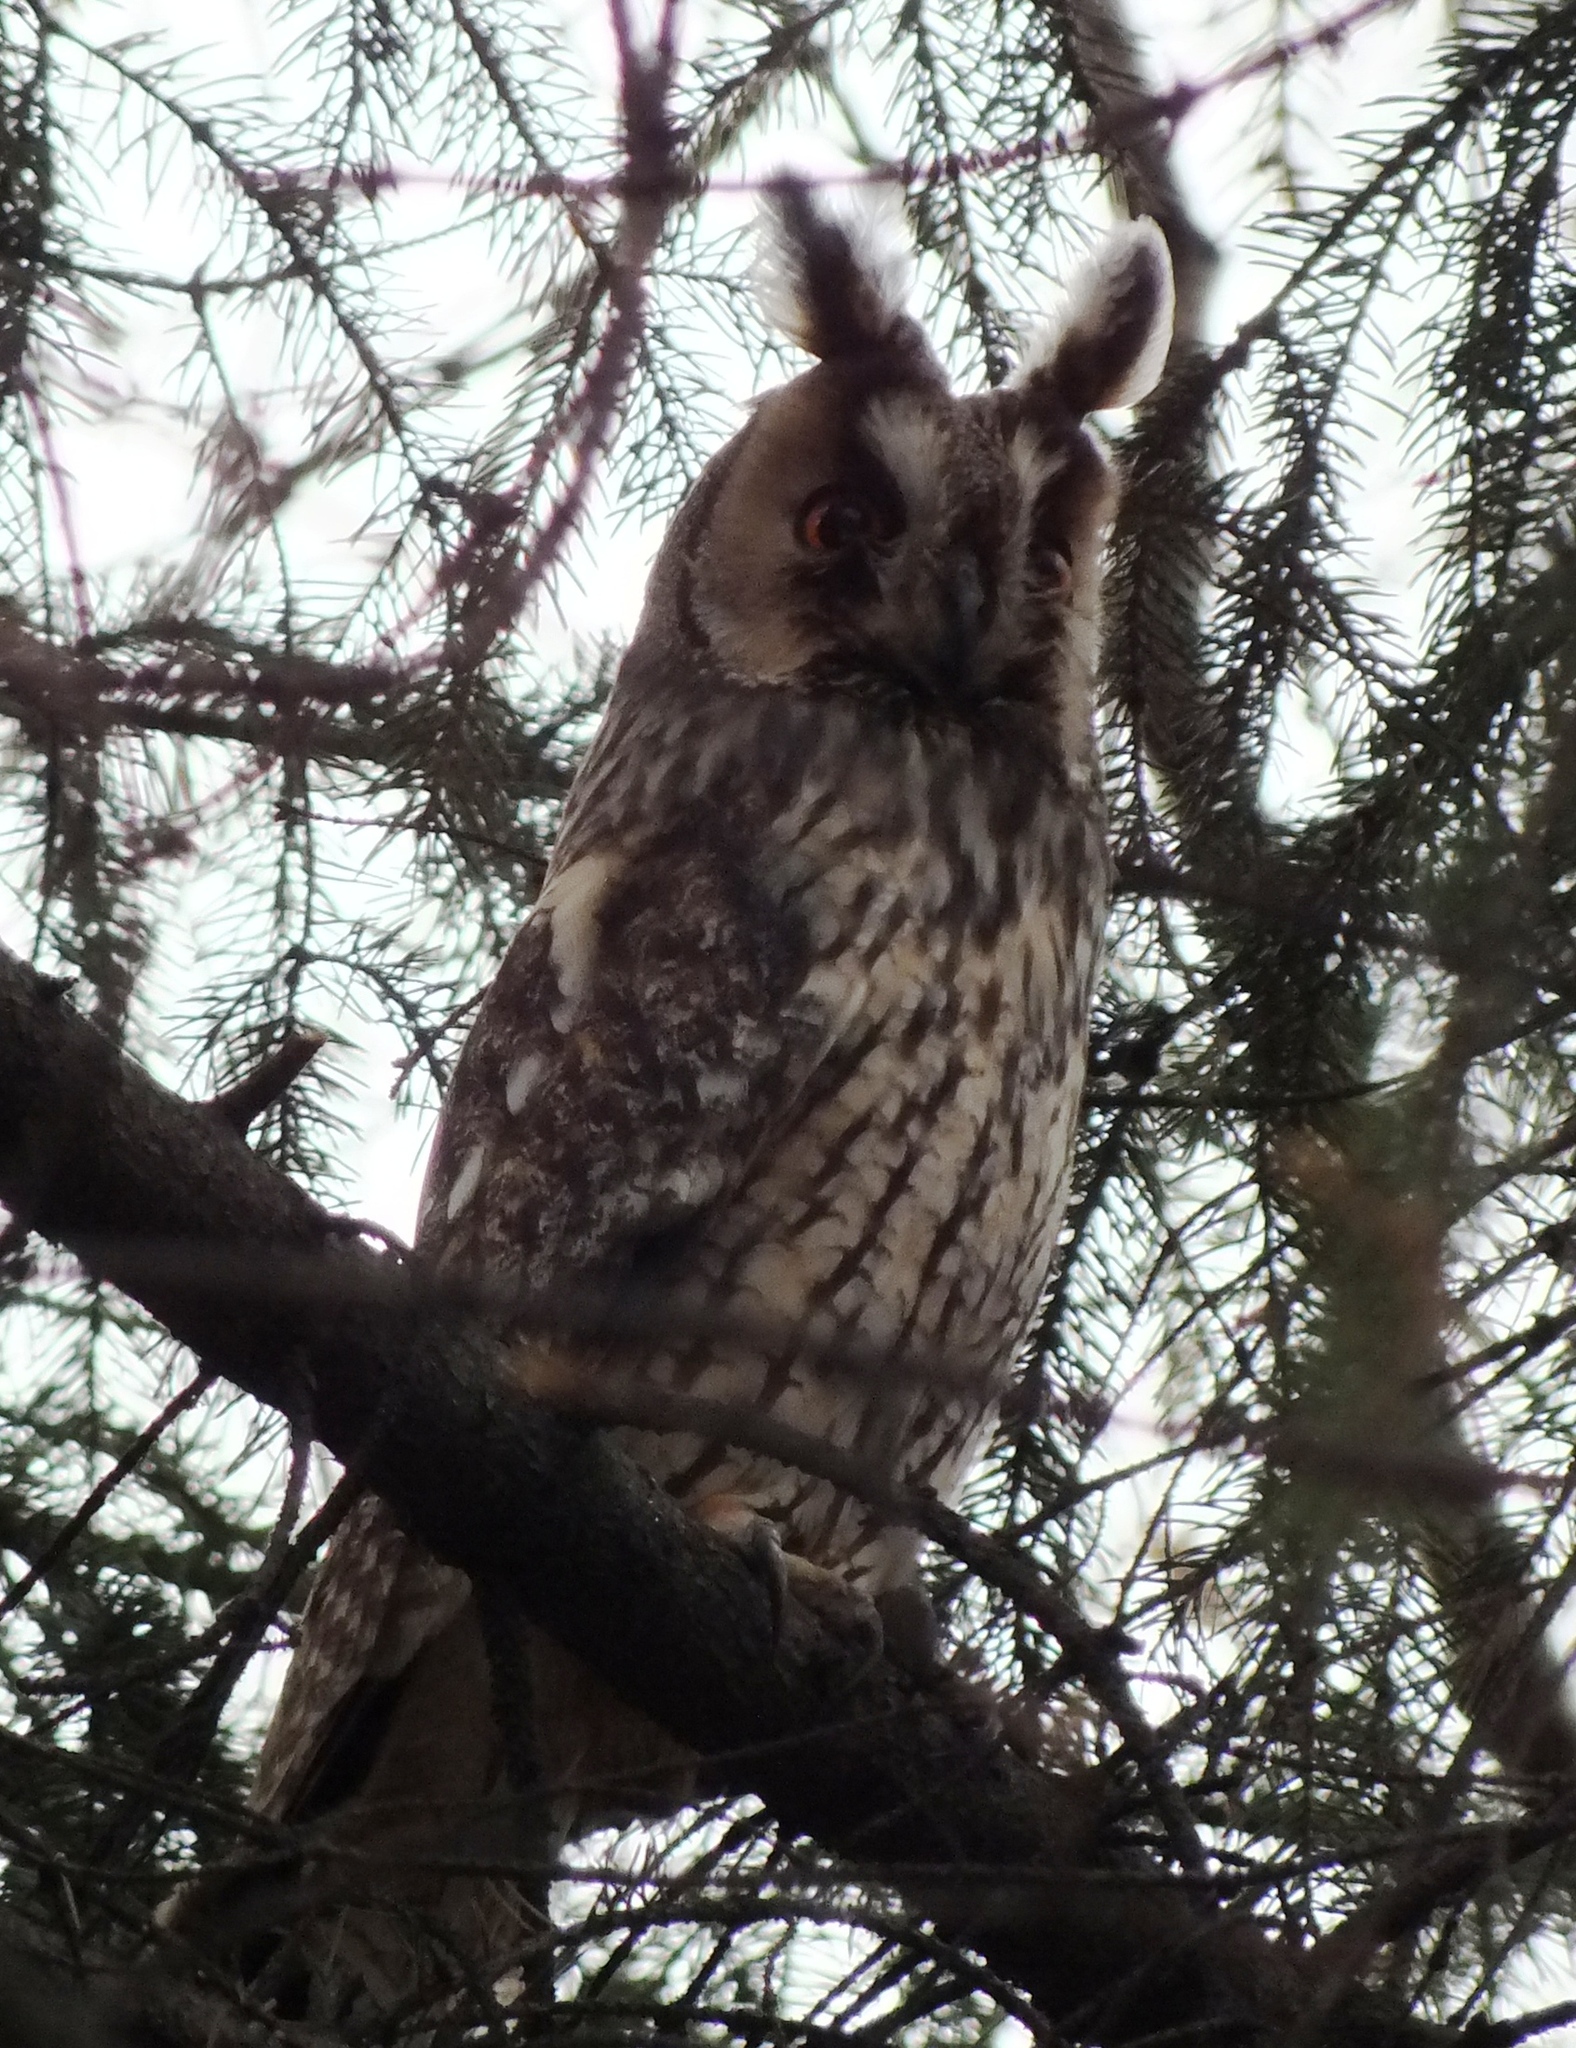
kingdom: Animalia
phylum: Chordata
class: Aves
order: Strigiformes
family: Strigidae
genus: Asio
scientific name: Asio otus
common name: Long-eared owl
